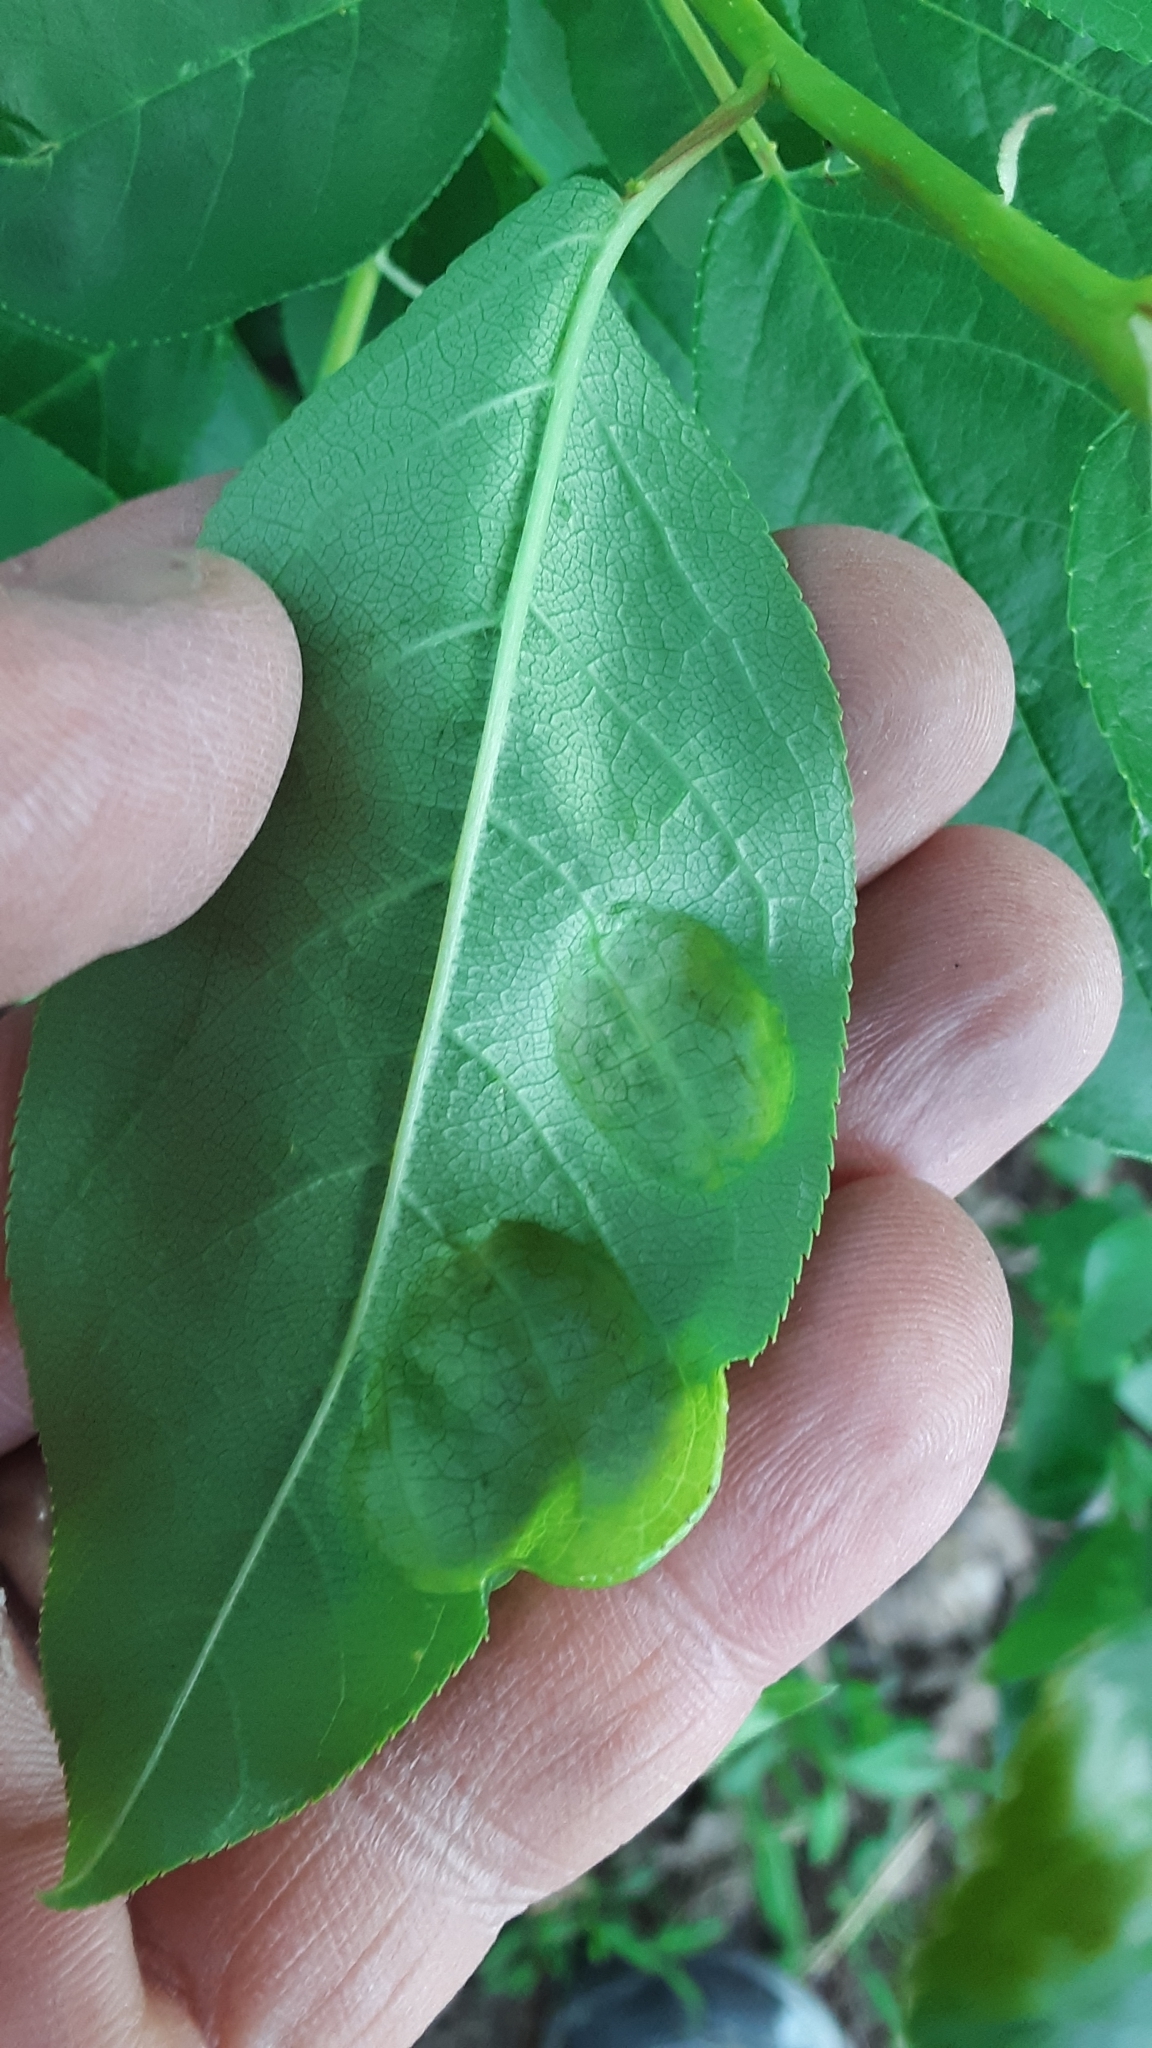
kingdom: Plantae
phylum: Tracheophyta
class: Magnoliopsida
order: Rosales
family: Rosaceae
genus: Prunus
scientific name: Prunus virginiana
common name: Chokecherry
